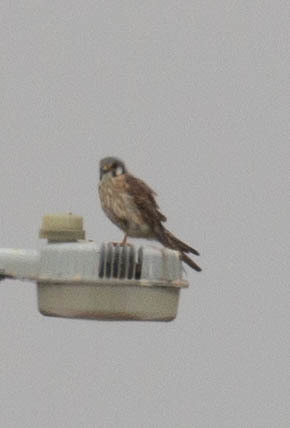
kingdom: Animalia
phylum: Chordata
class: Aves
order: Falconiformes
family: Falconidae
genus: Falco
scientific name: Falco sparverius
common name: American kestrel
